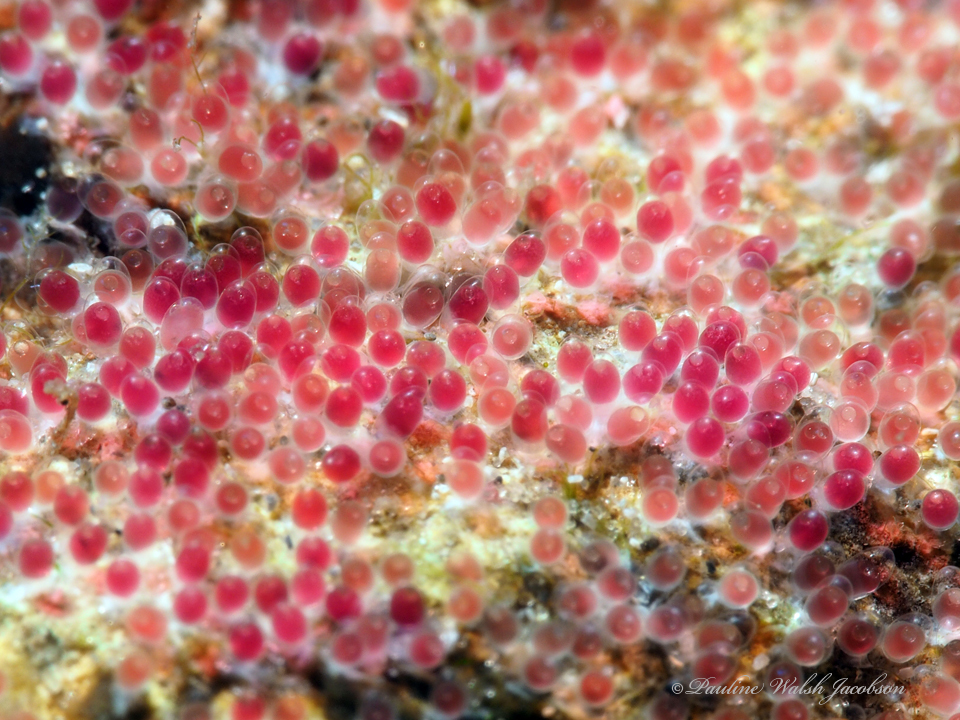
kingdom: Animalia
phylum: Chordata
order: Perciformes
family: Pomacentridae
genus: Abudefduf
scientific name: Abudefduf saxatilis
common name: Sergeant major
